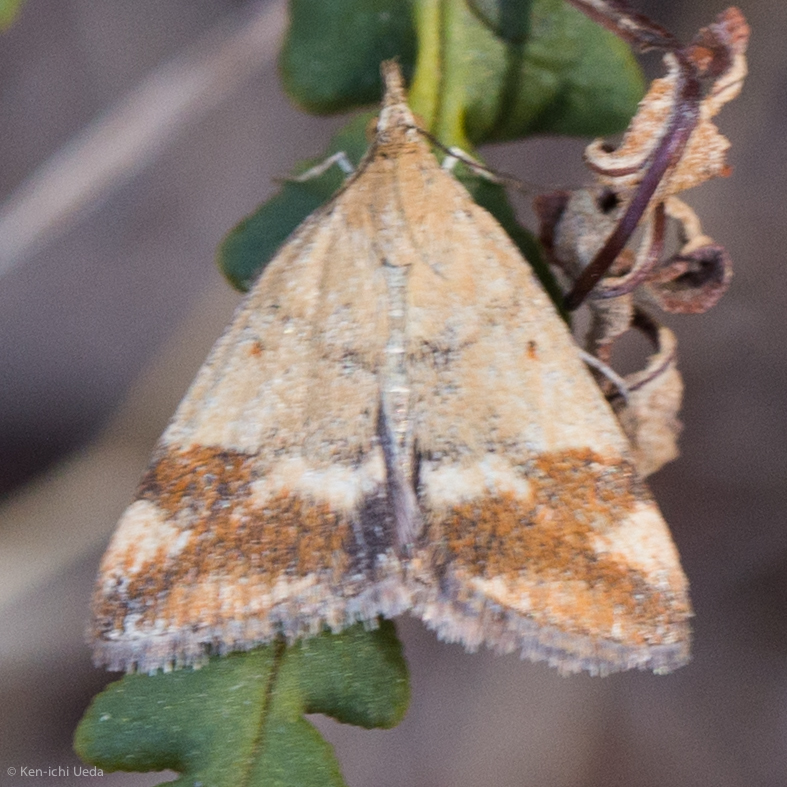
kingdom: Animalia
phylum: Arthropoda
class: Insecta
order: Lepidoptera
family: Crambidae
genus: Pyrausta
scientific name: Pyrausta semirubralis
